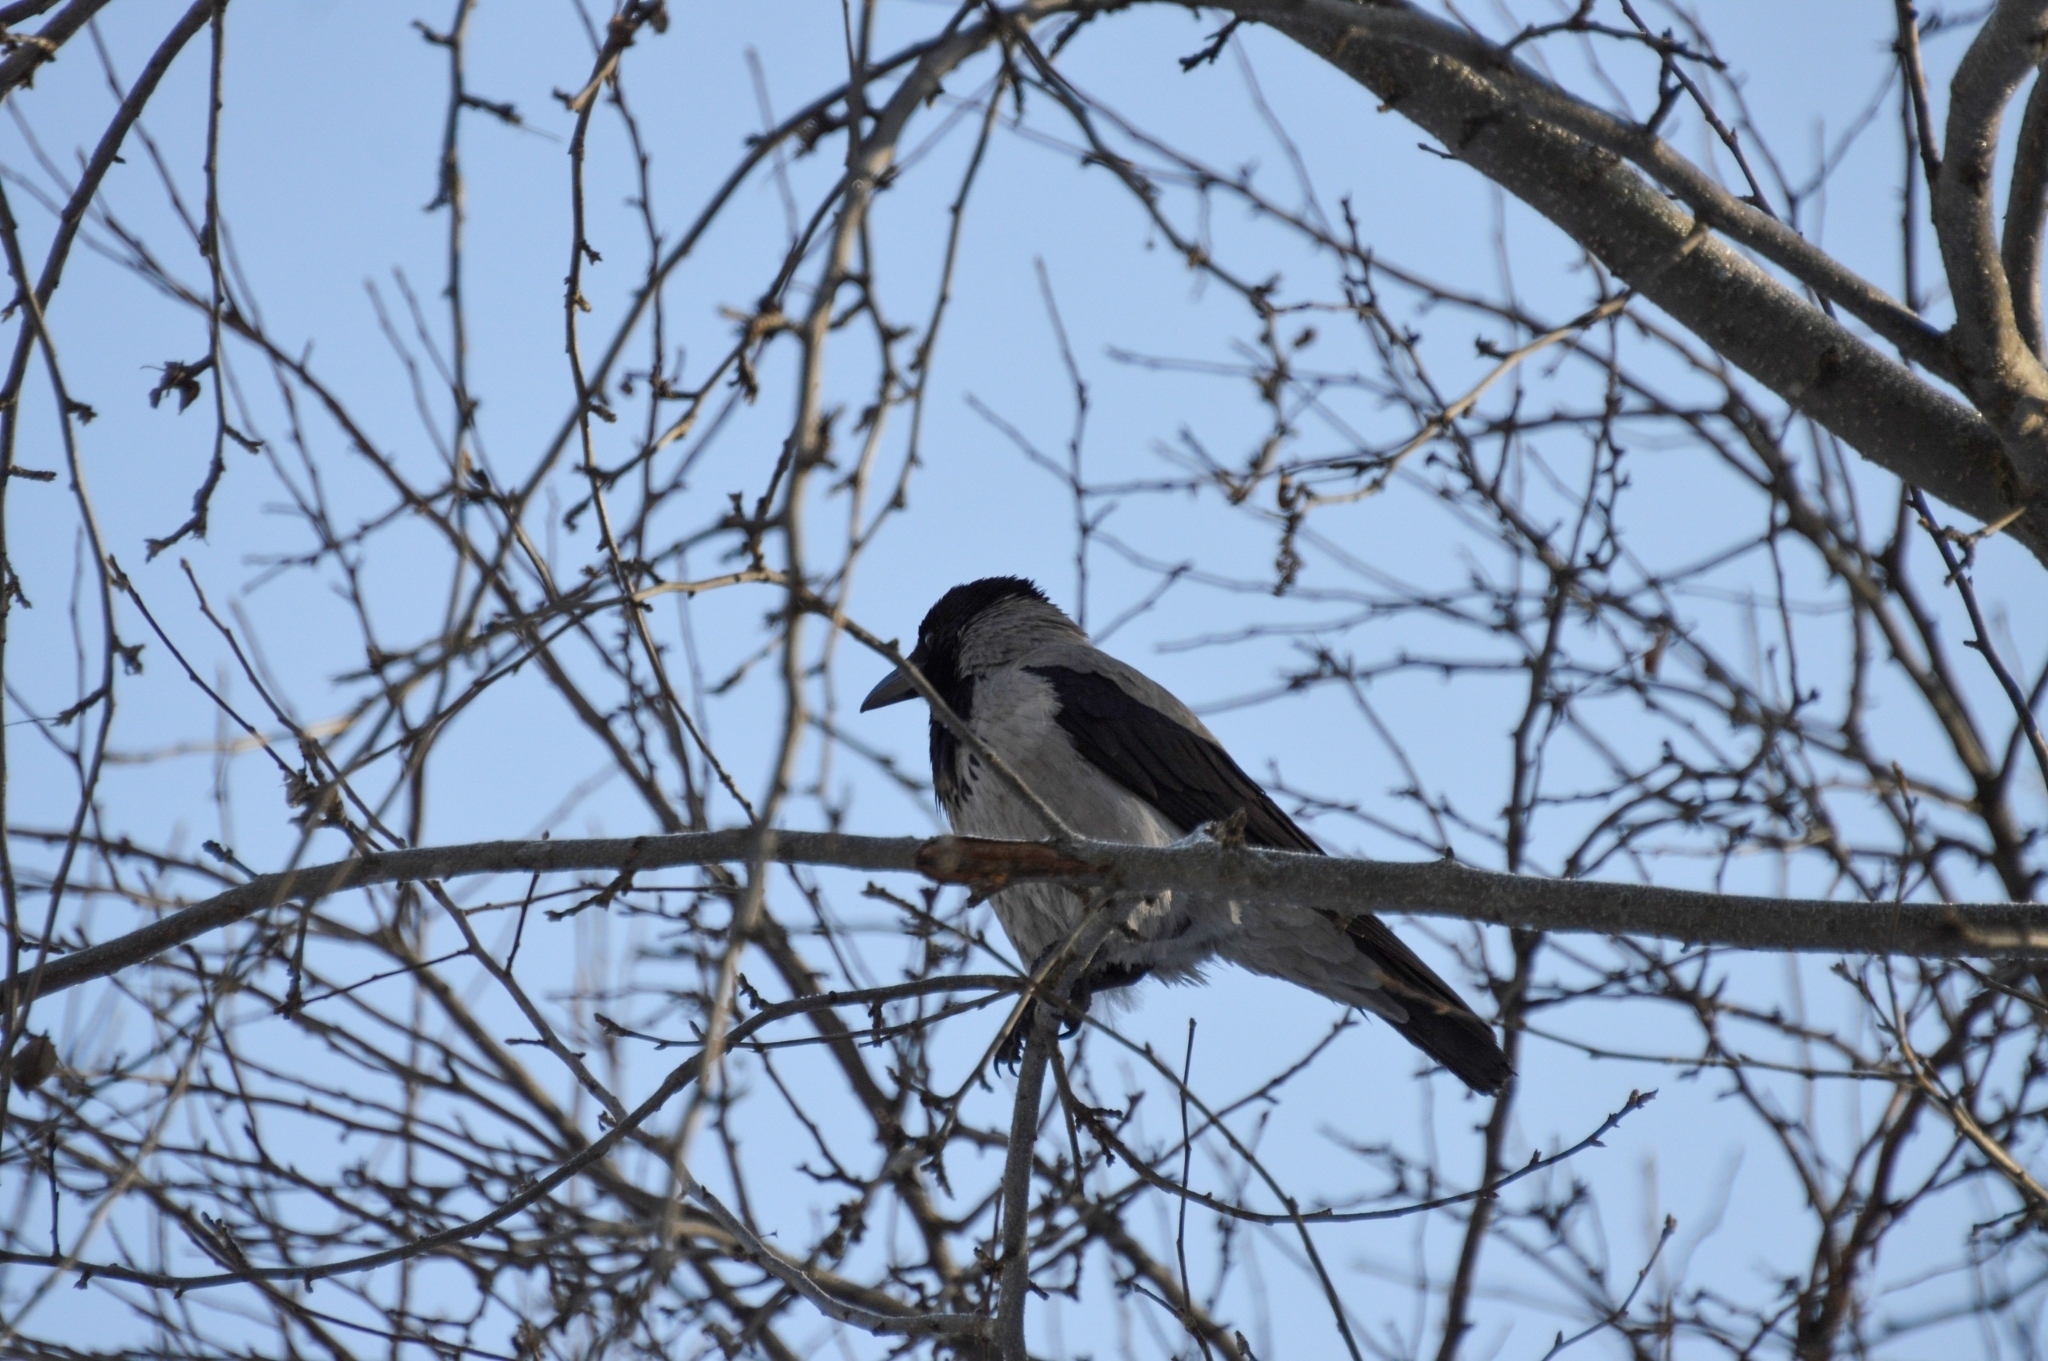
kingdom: Animalia
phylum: Chordata
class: Aves
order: Passeriformes
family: Corvidae
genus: Corvus
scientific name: Corvus cornix
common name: Hooded crow
